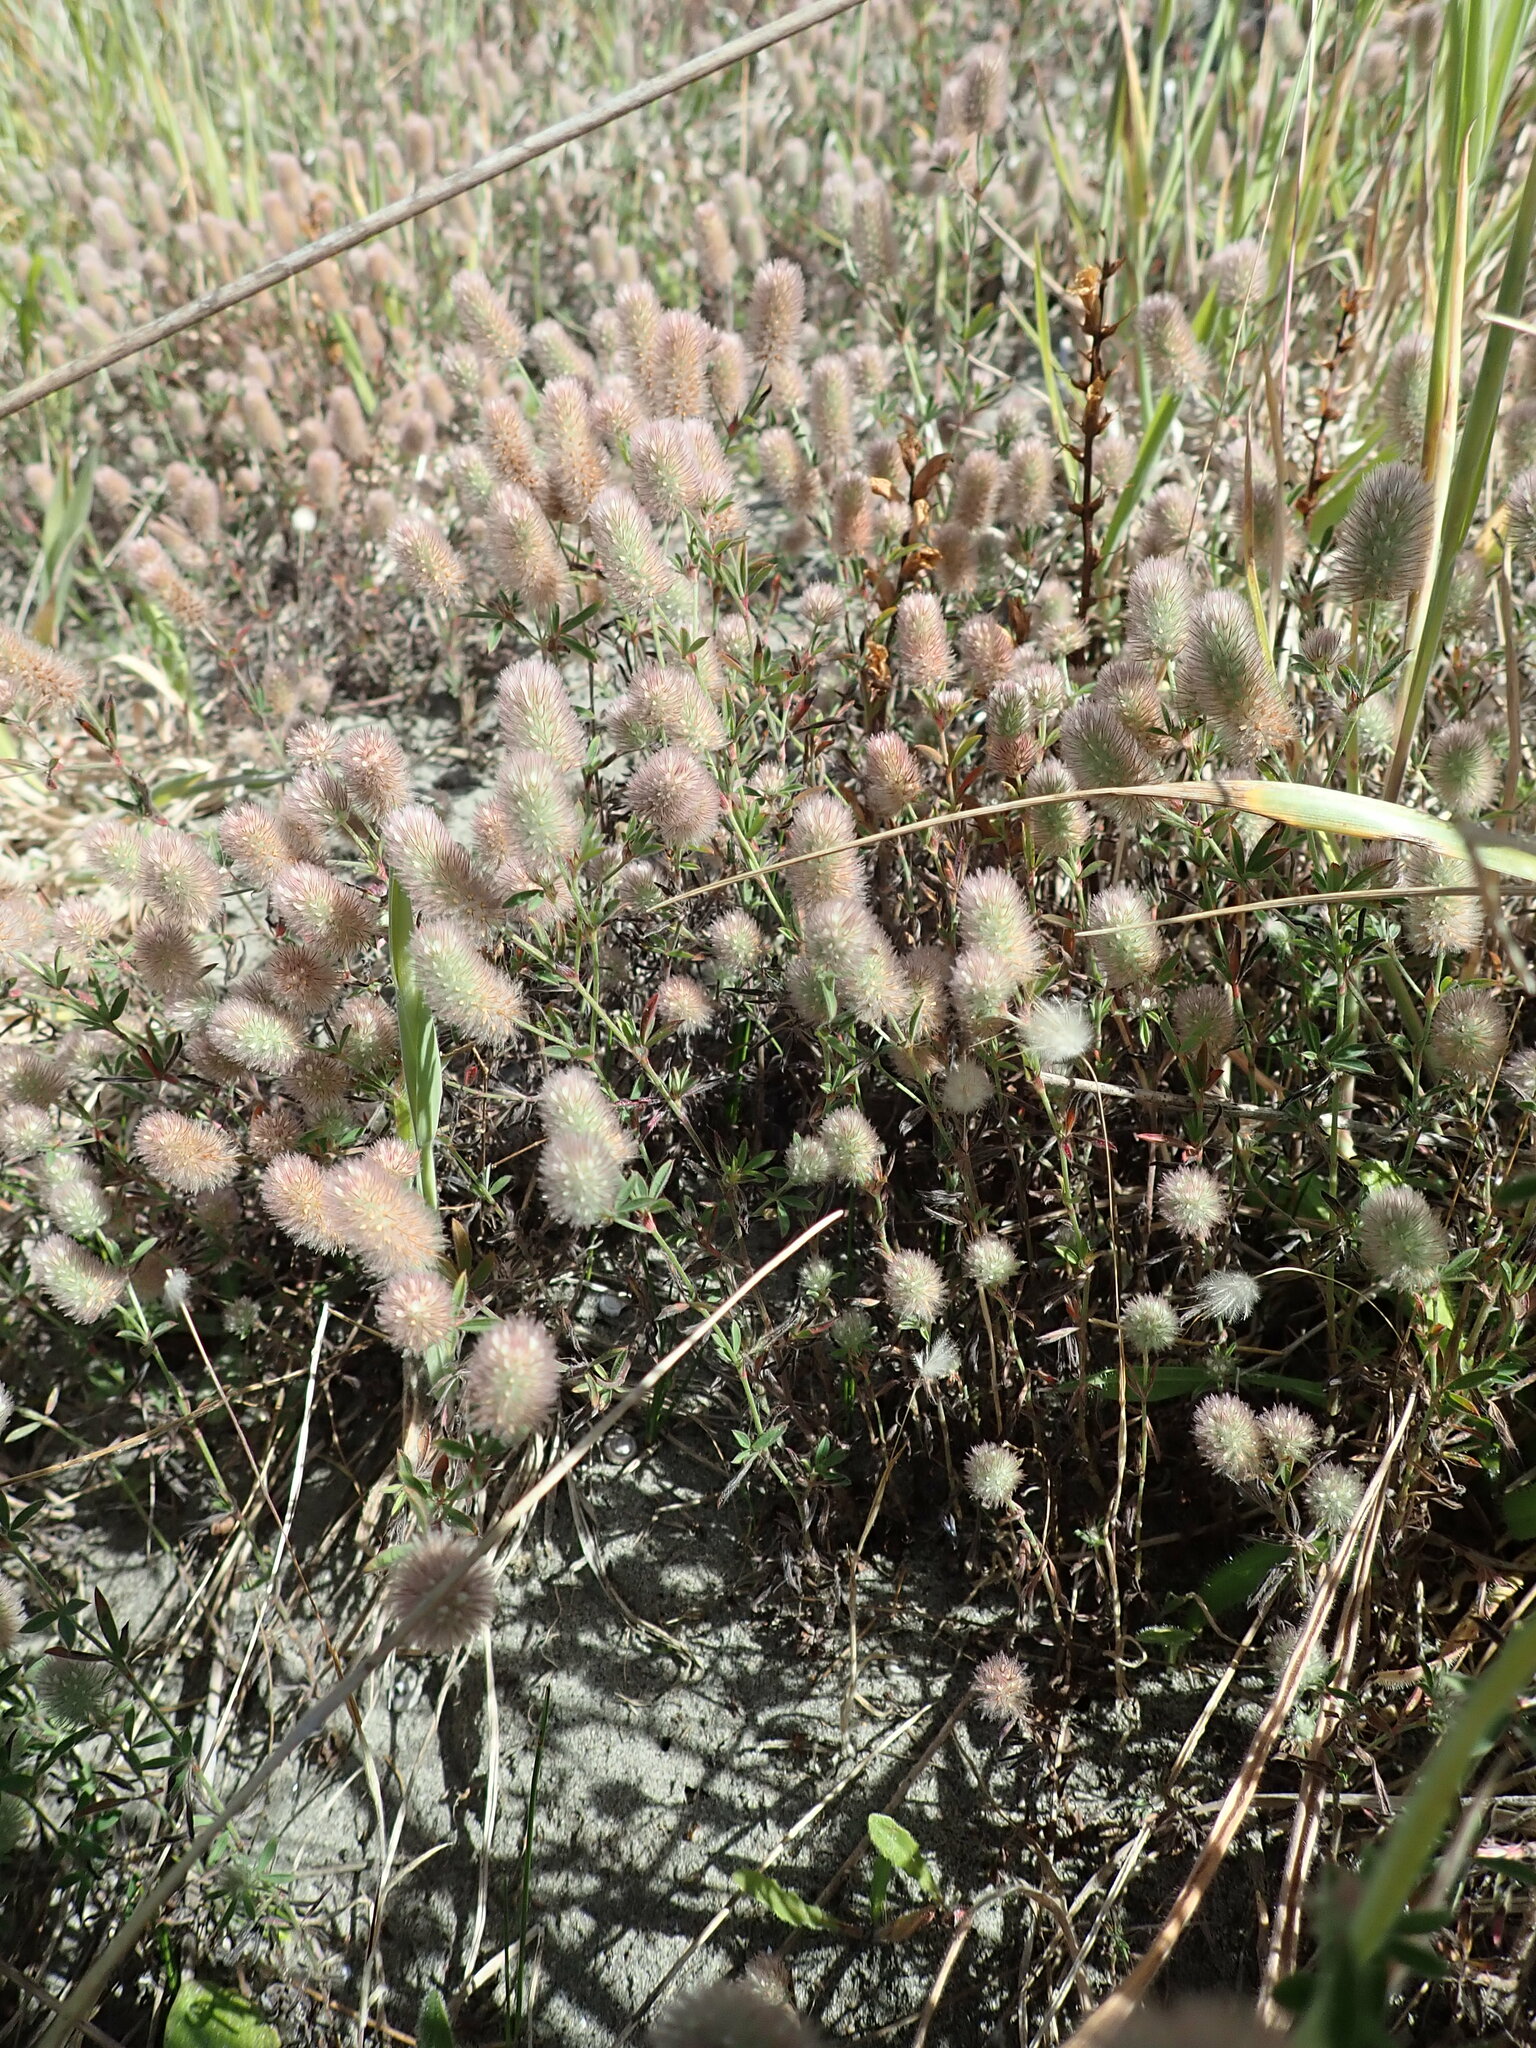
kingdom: Plantae
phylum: Tracheophyta
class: Magnoliopsida
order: Fabales
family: Fabaceae
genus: Trifolium
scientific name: Trifolium arvense
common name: Hare's-foot clover
